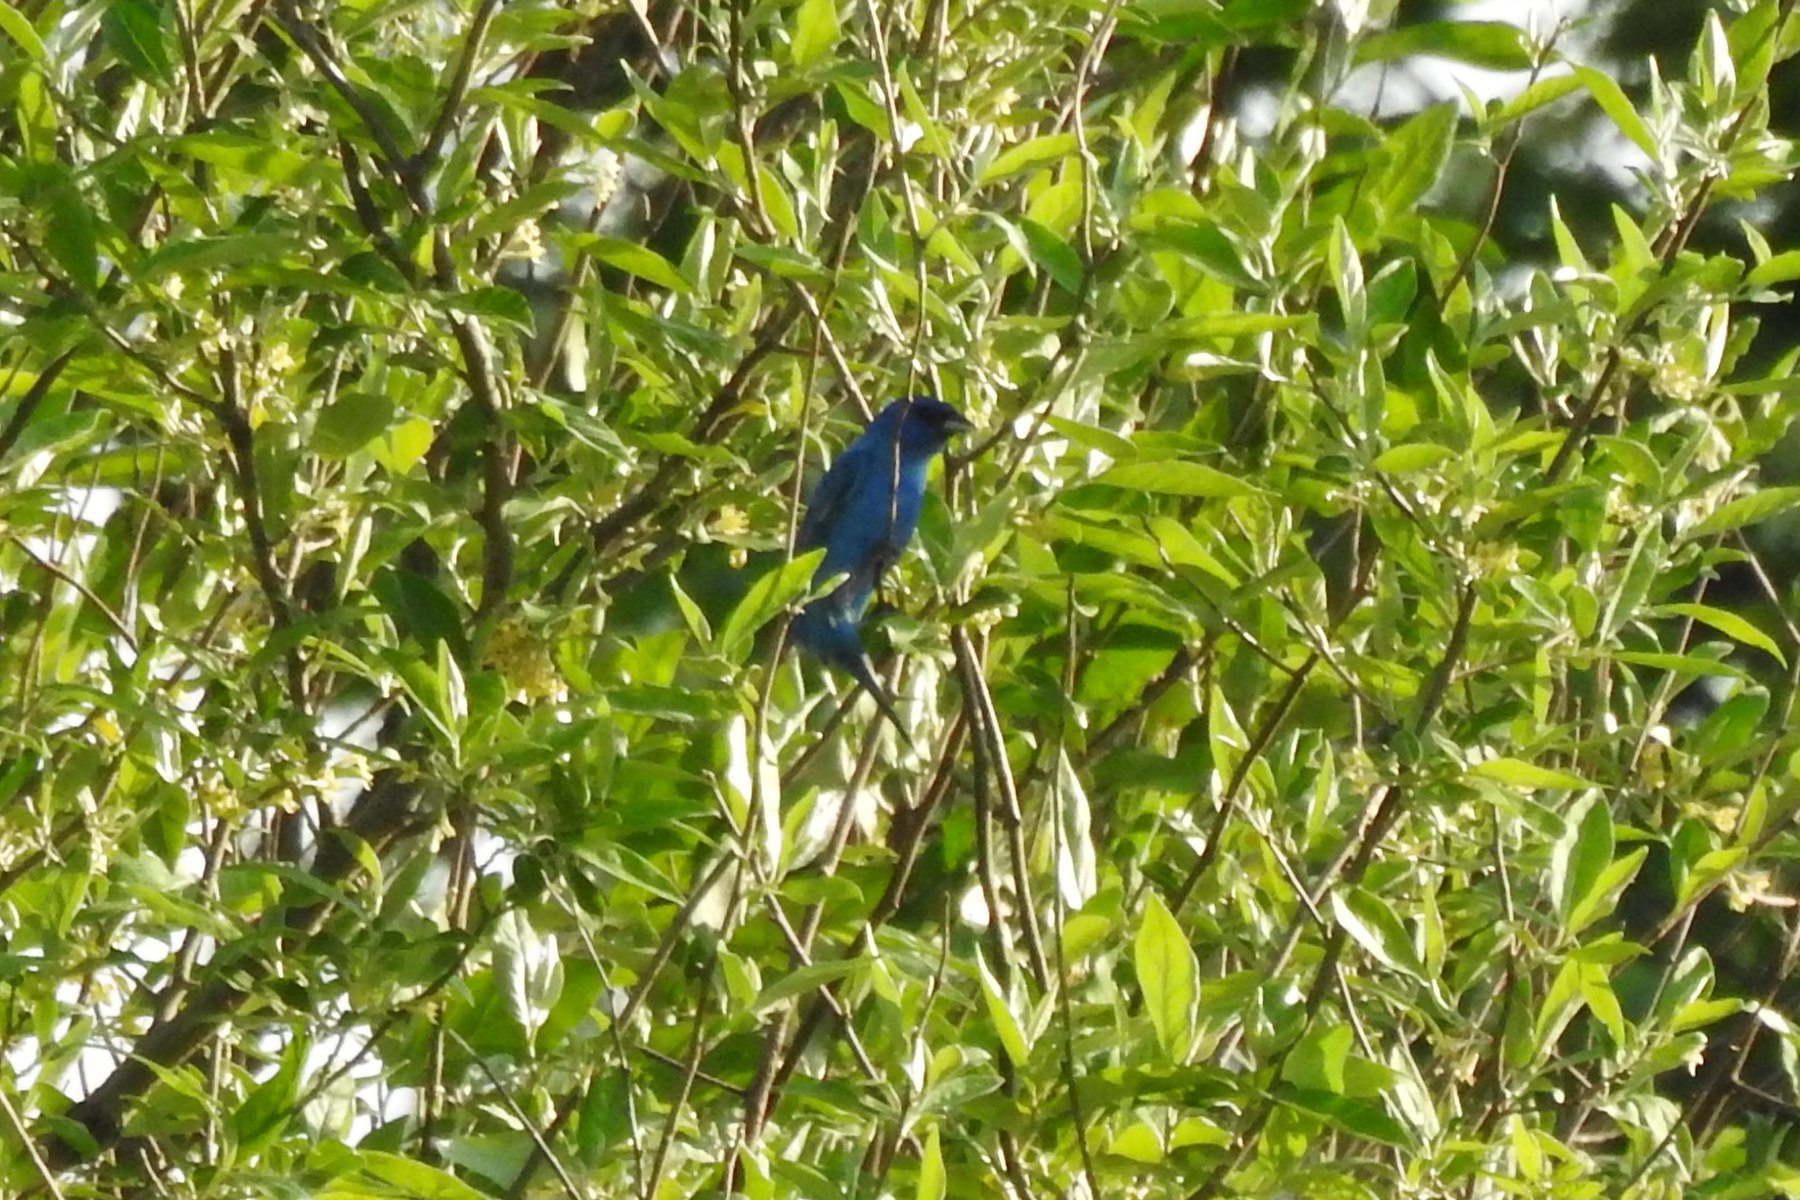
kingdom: Animalia
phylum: Chordata
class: Aves
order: Passeriformes
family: Cardinalidae
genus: Passerina
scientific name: Passerina cyanea
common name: Indigo bunting
